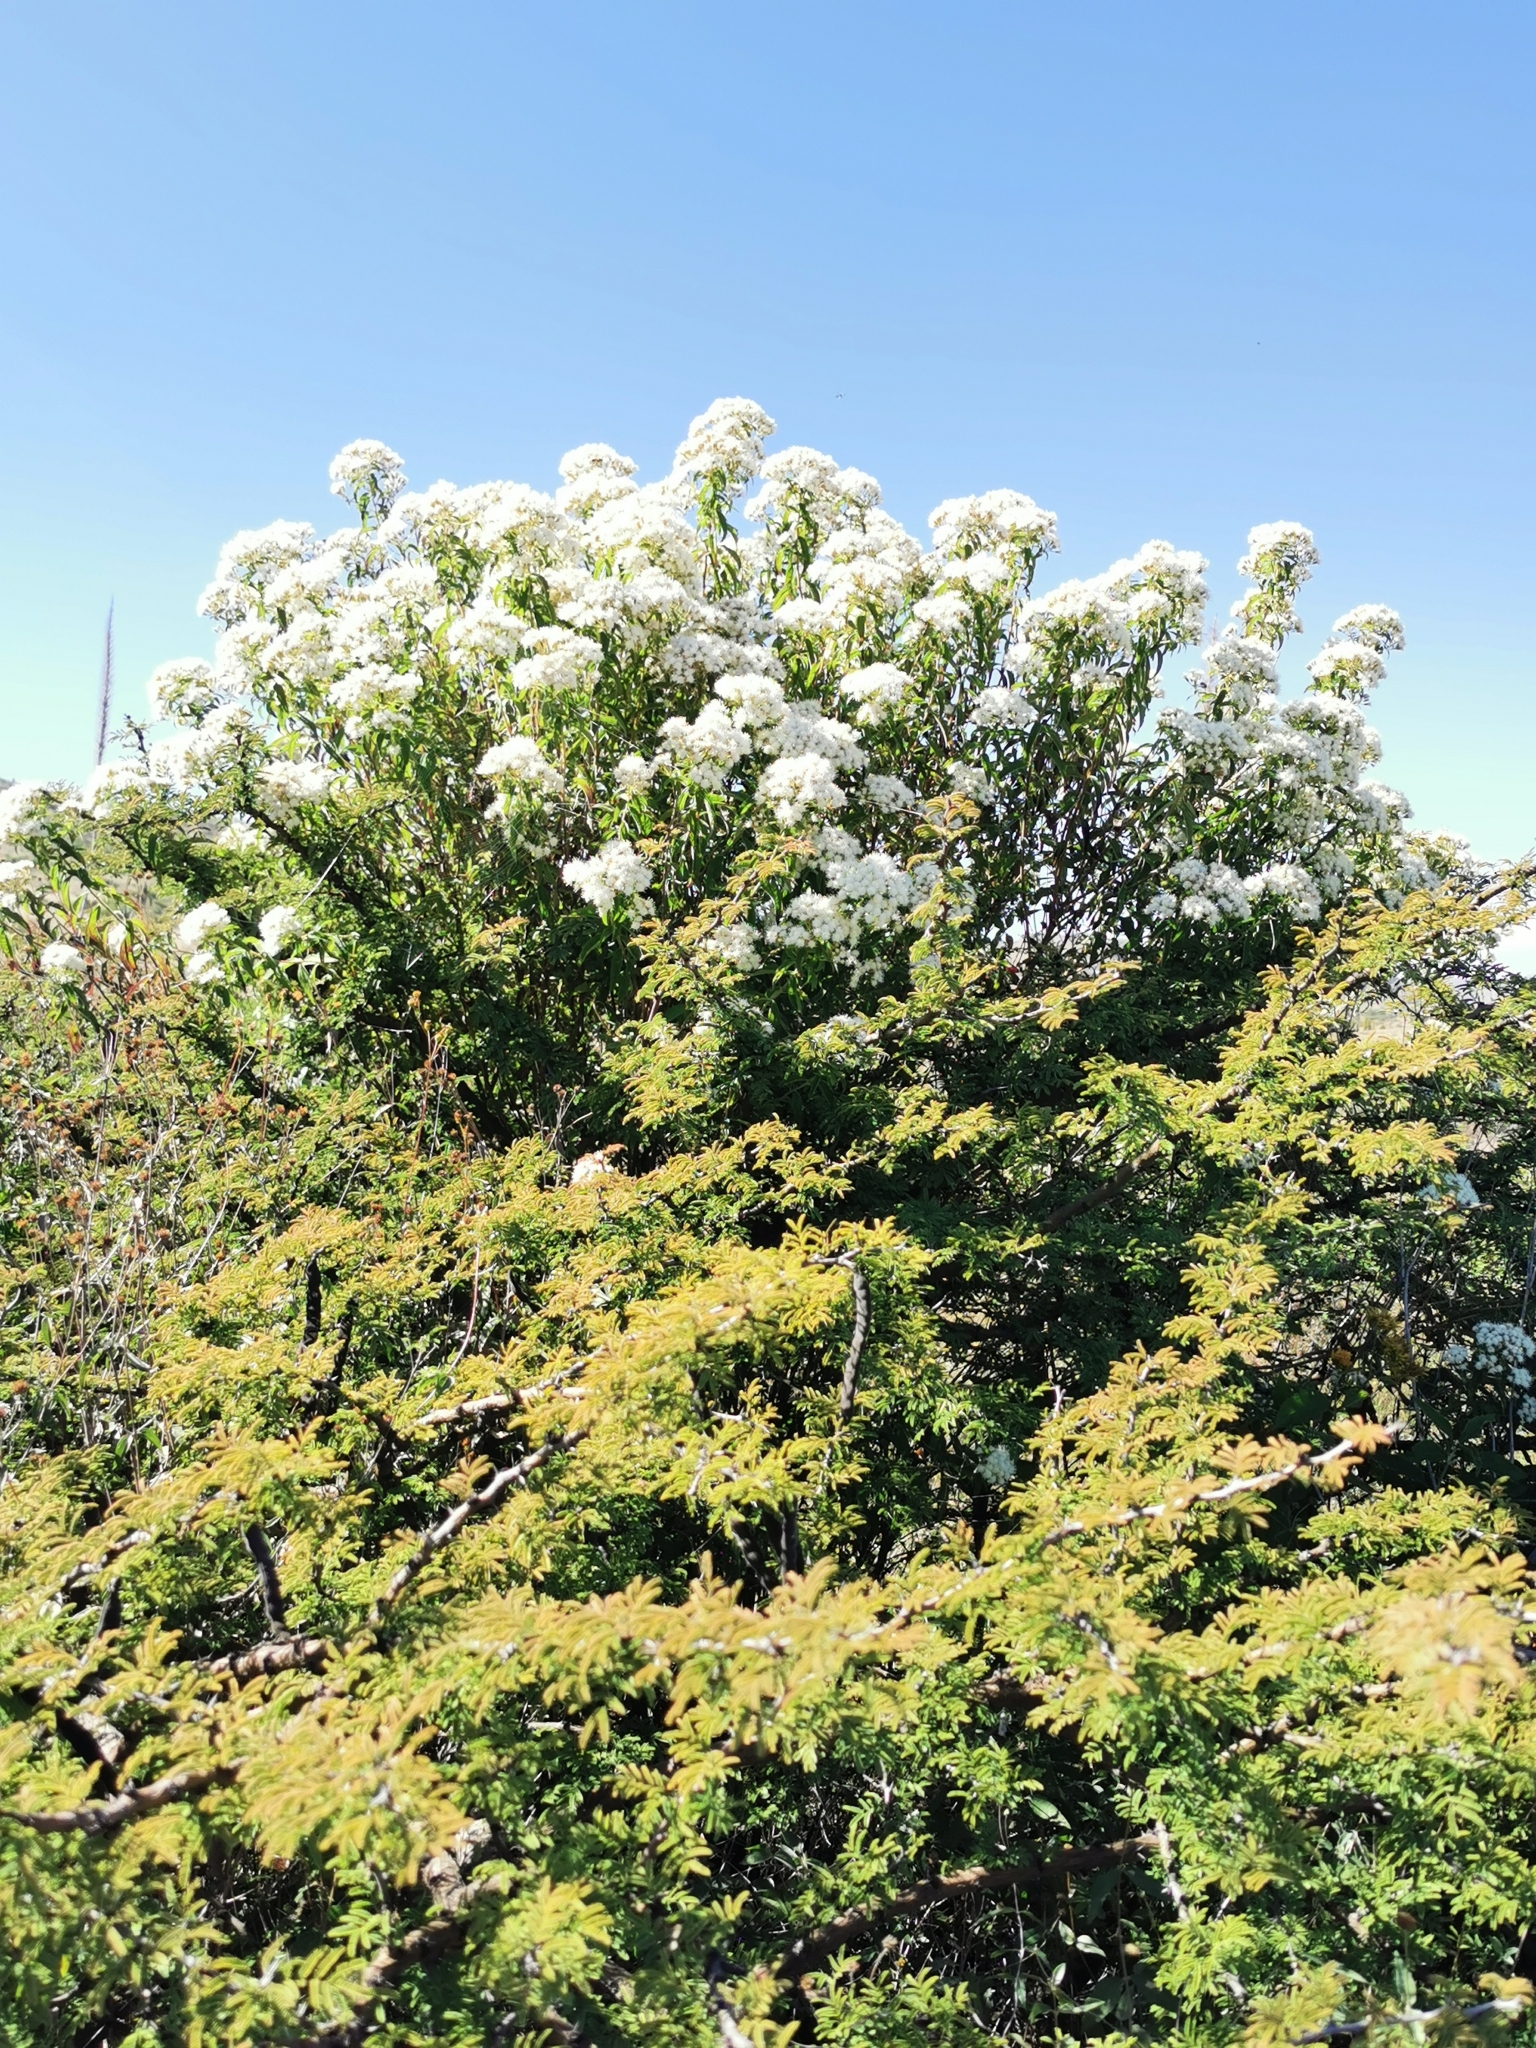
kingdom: Plantae
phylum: Tracheophyta
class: Magnoliopsida
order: Asterales
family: Asteraceae
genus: Ageratina
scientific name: Ageratina brevipes
